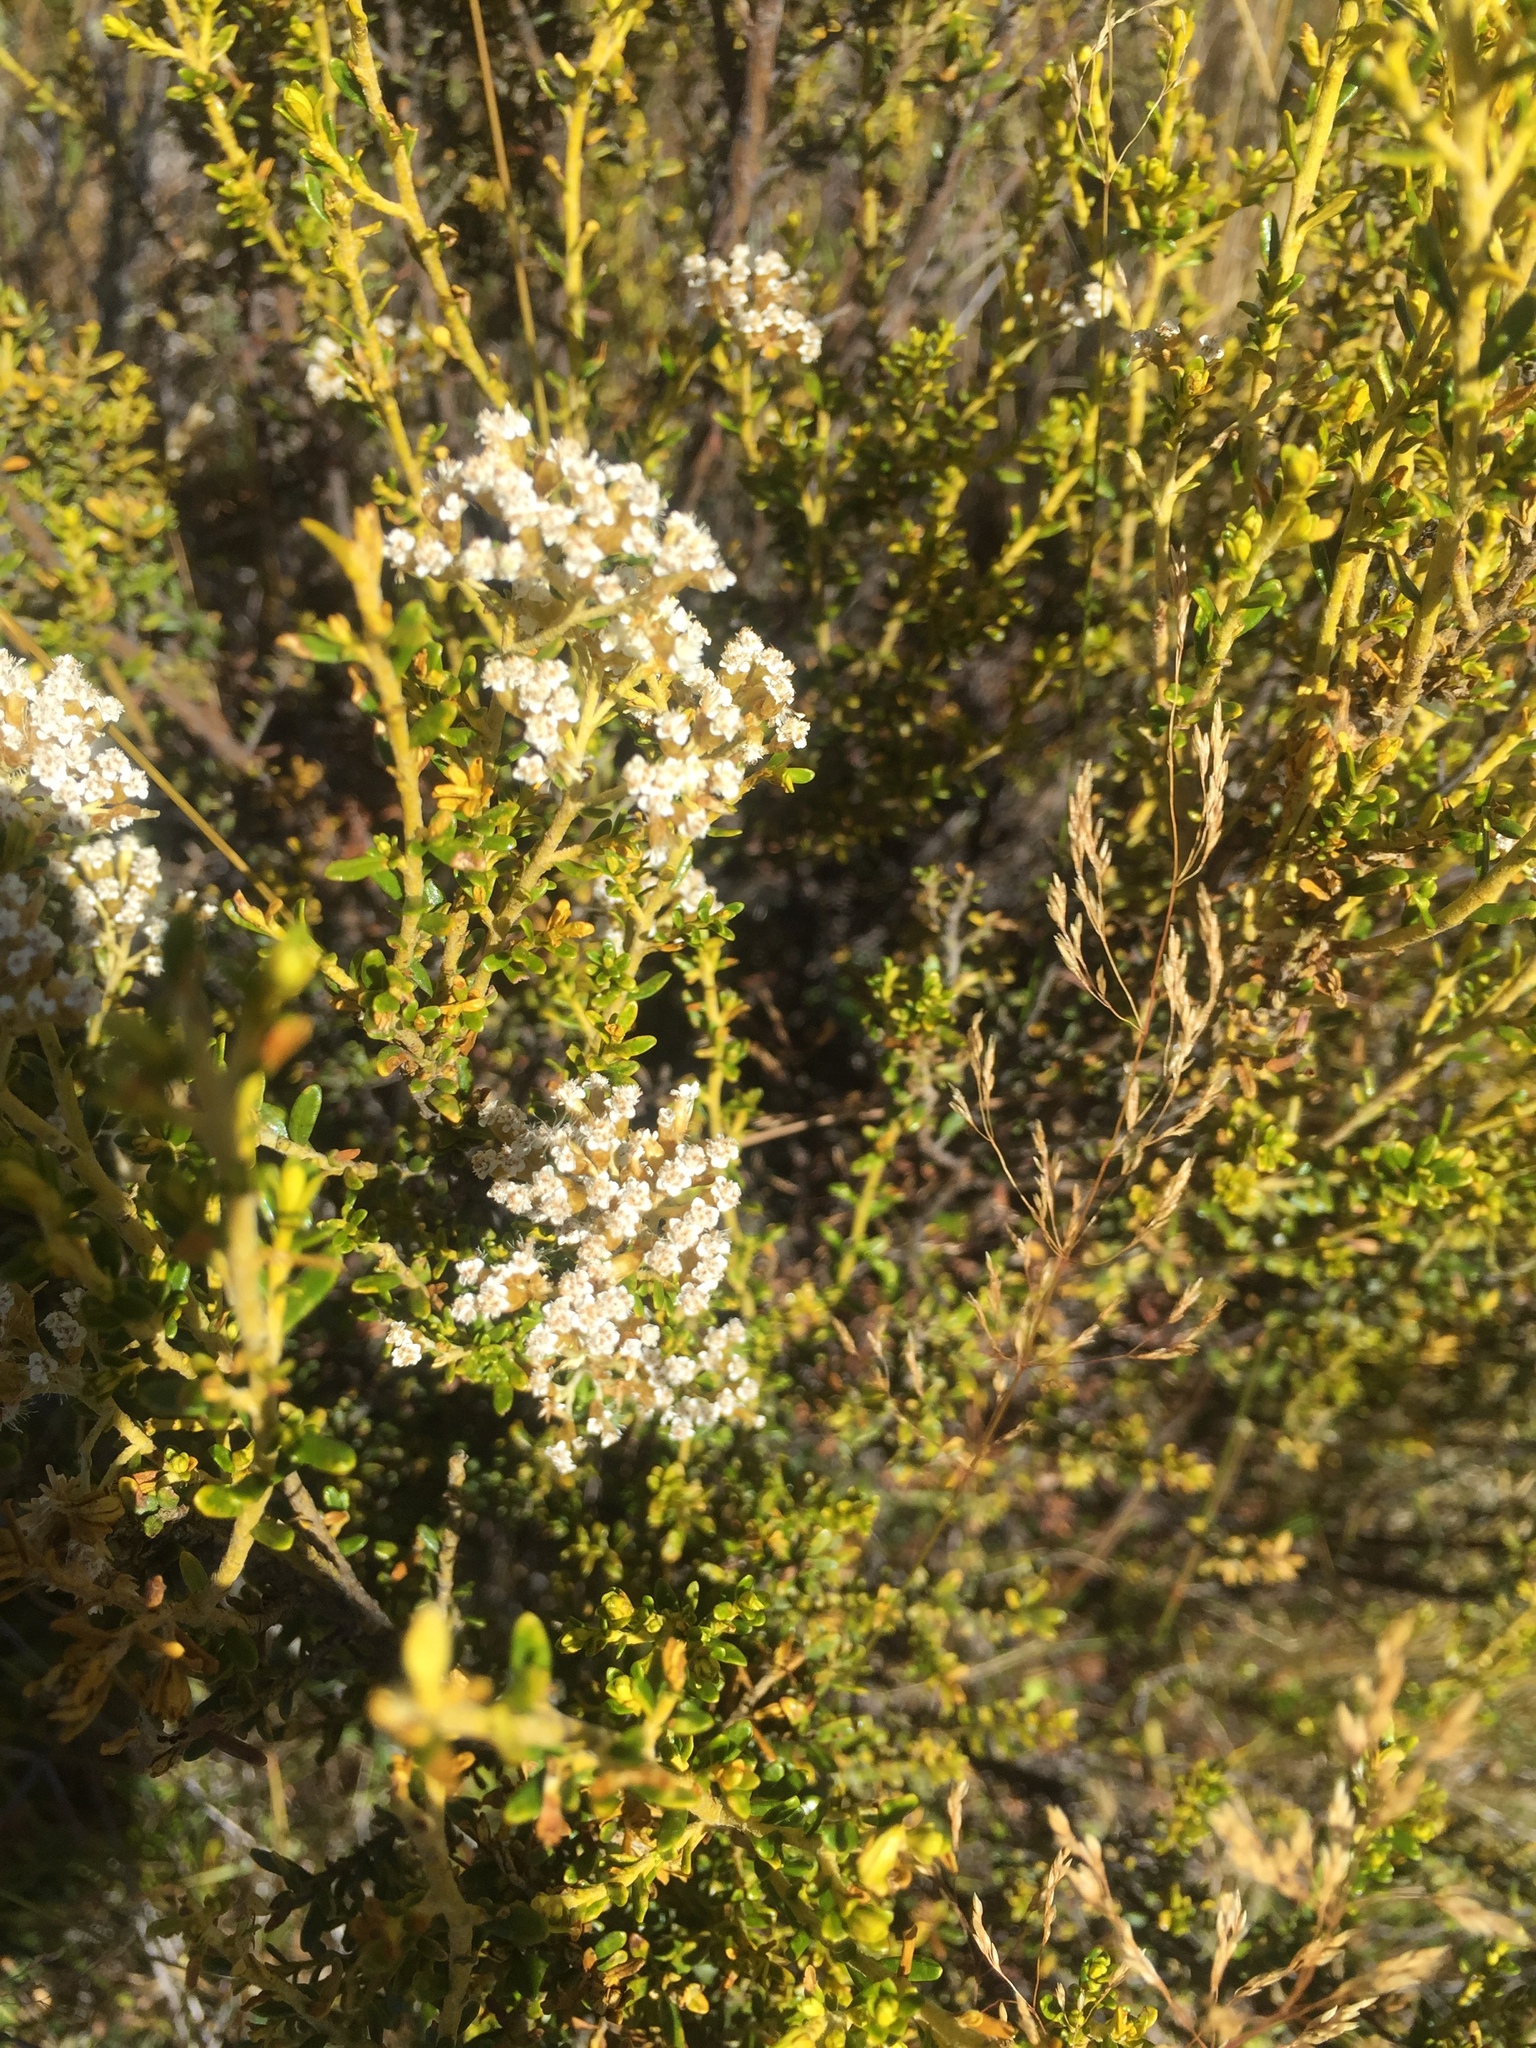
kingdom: Plantae
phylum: Tracheophyta
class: Magnoliopsida
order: Asterales
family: Asteraceae
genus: Ozothamnus
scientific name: Ozothamnus leptophyllus
